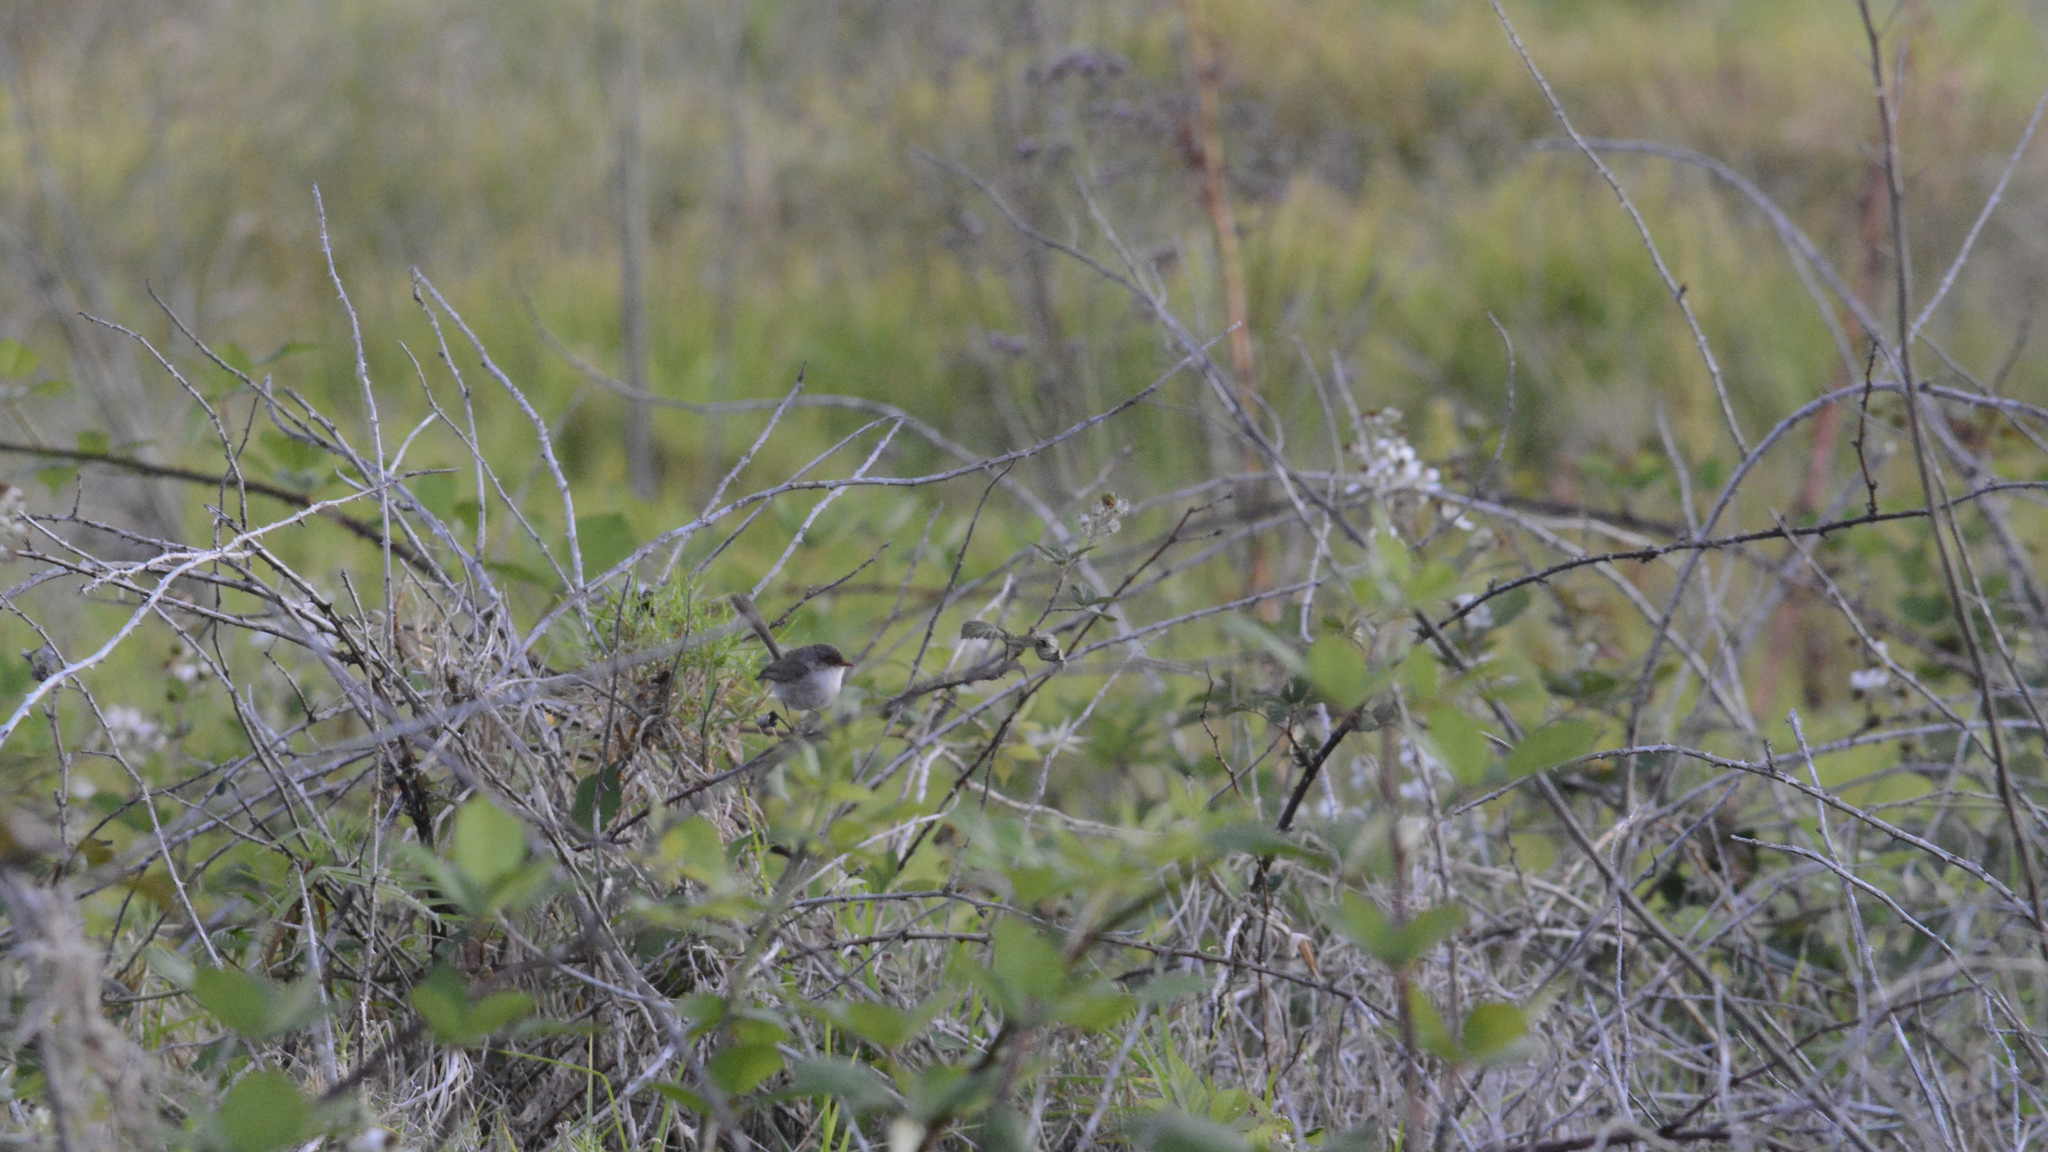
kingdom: Animalia
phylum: Chordata
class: Aves
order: Passeriformes
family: Maluridae
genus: Malurus
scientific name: Malurus cyaneus
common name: Superb fairywren
